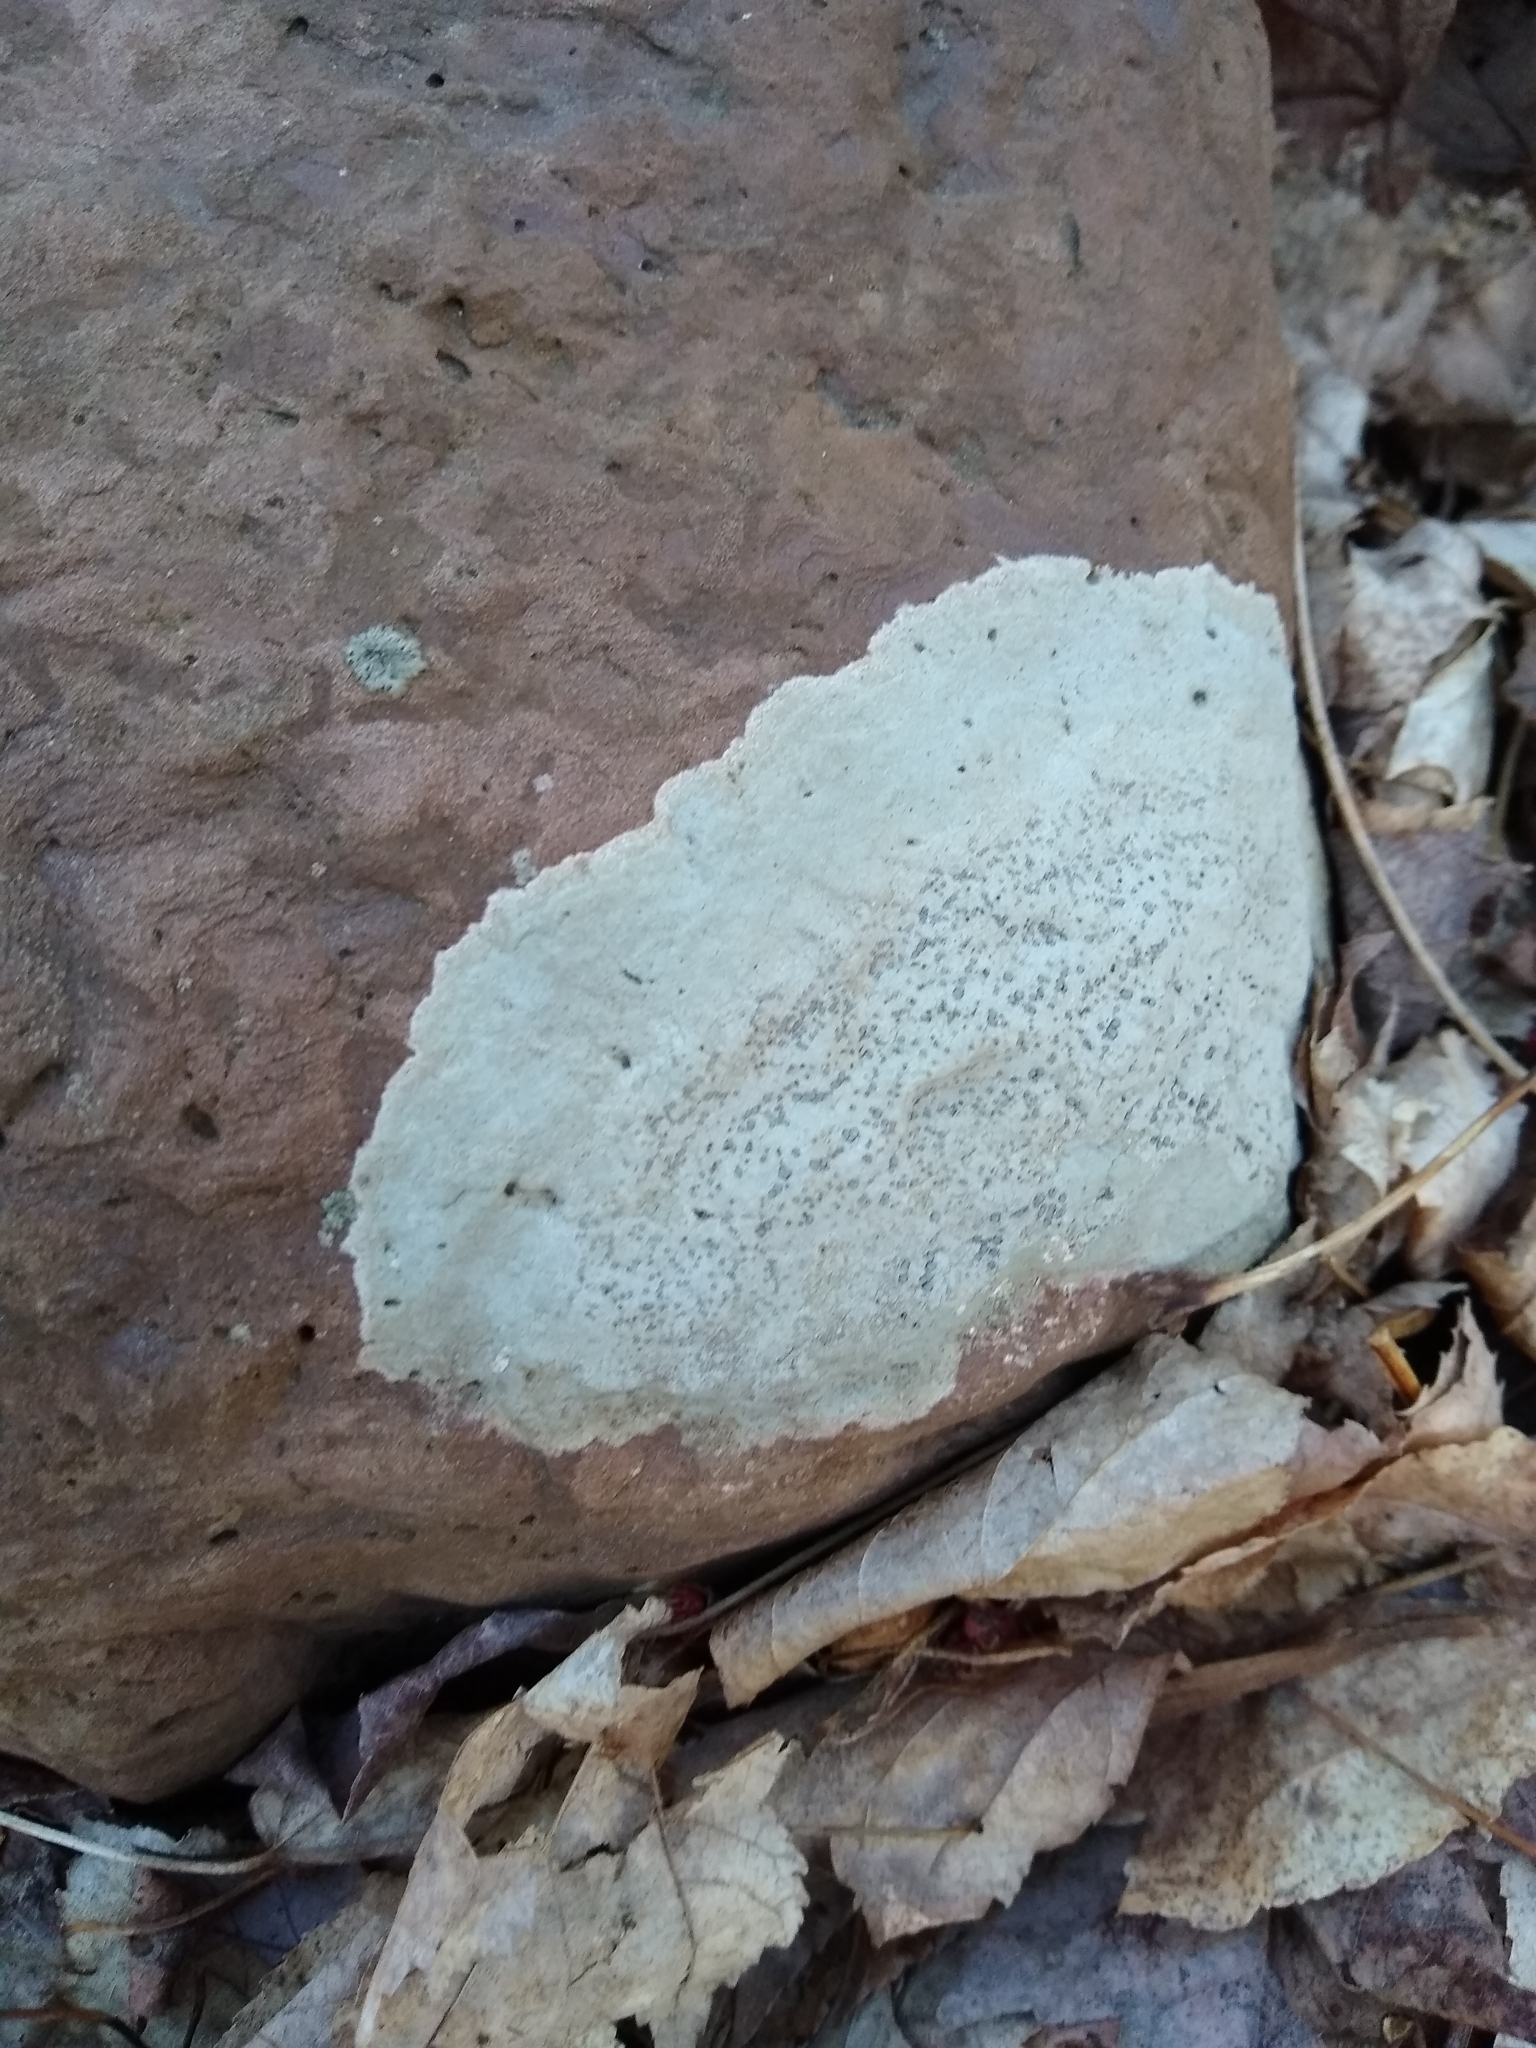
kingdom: Fungi
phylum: Ascomycota
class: Lecanoromycetes
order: Lecideales
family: Lecideaceae
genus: Porpidia
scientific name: Porpidia albocaerulescens
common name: Smokey-eyed boulder lichen
